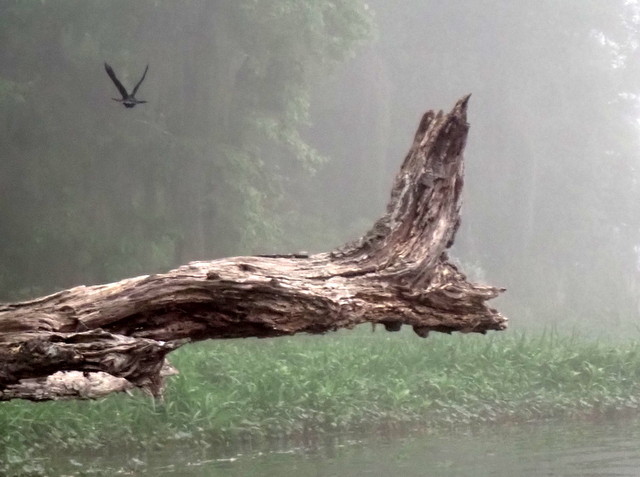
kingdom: Animalia
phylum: Chordata
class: Aves
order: Passeriformes
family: Icteridae
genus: Agelaius
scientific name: Agelaius phoeniceus
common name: Red-winged blackbird
